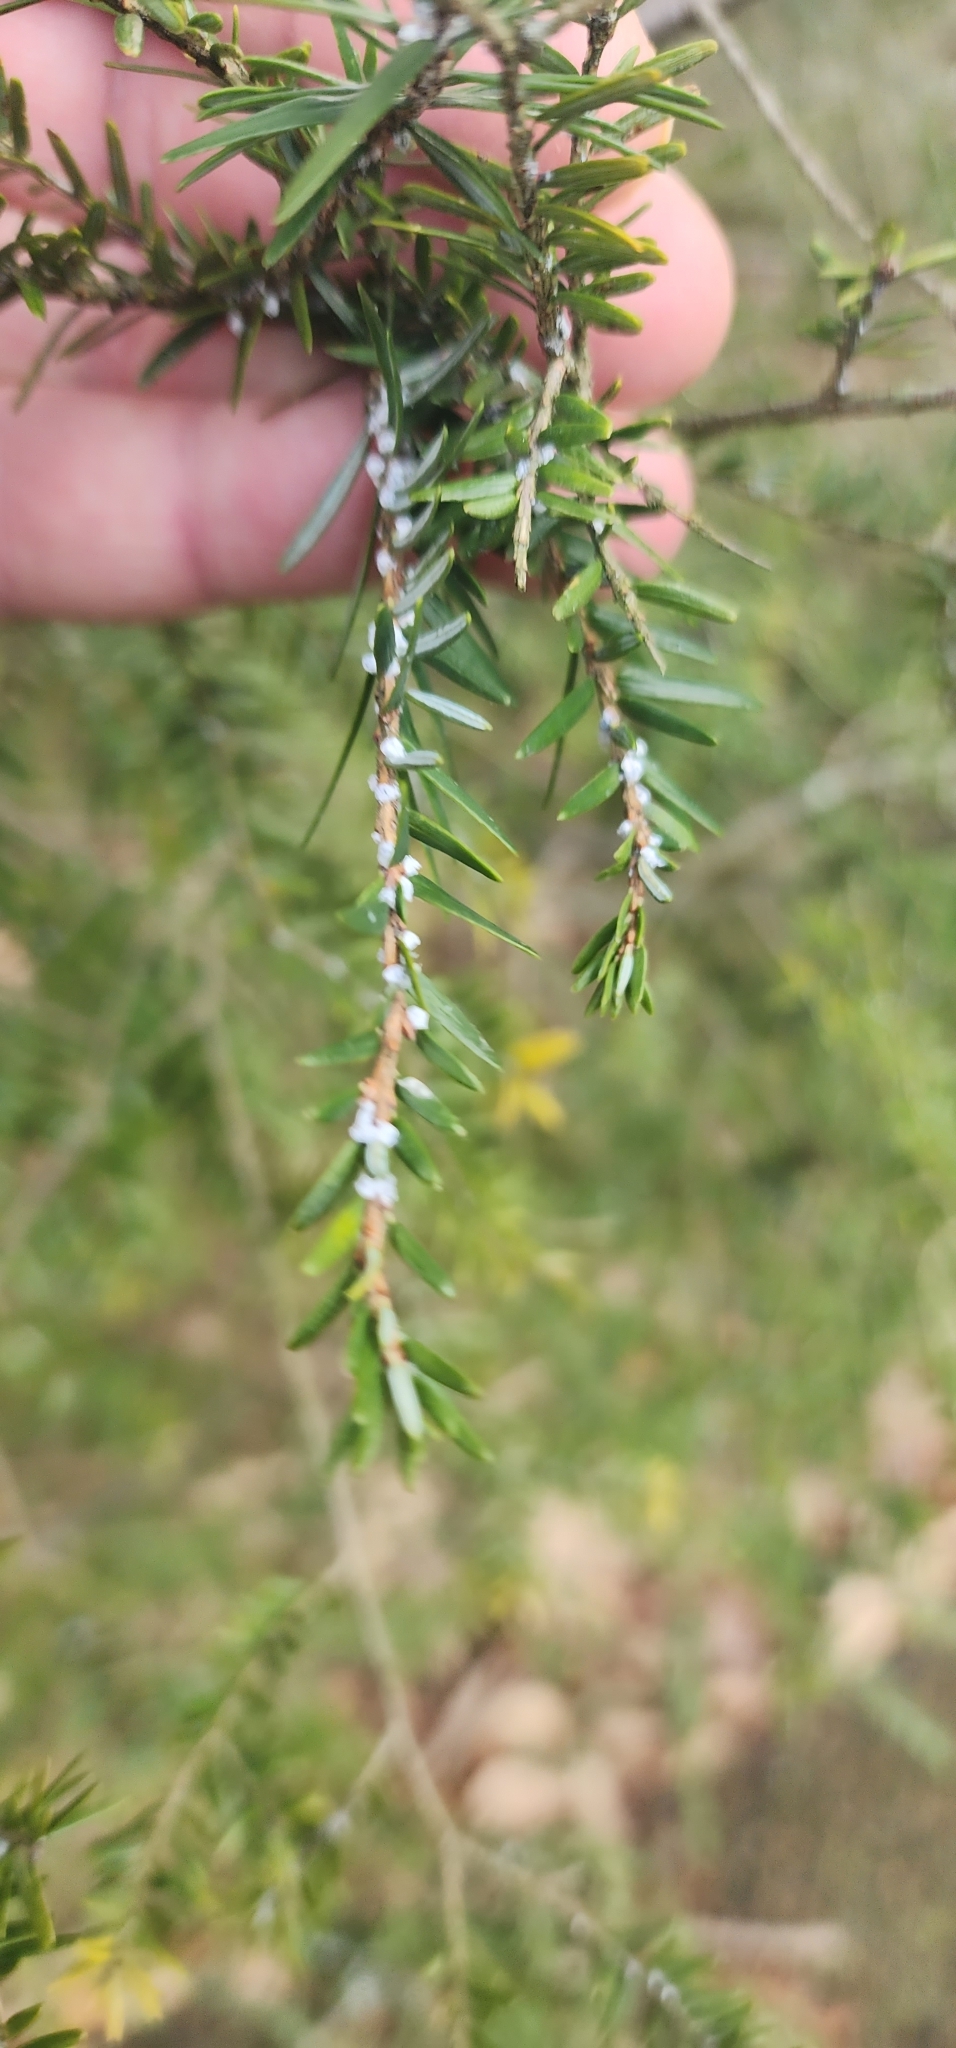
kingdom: Animalia
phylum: Arthropoda
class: Insecta
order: Hemiptera
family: Adelgidae
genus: Adelges
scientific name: Adelges tsugae
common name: Hemlock woolly adelgid
